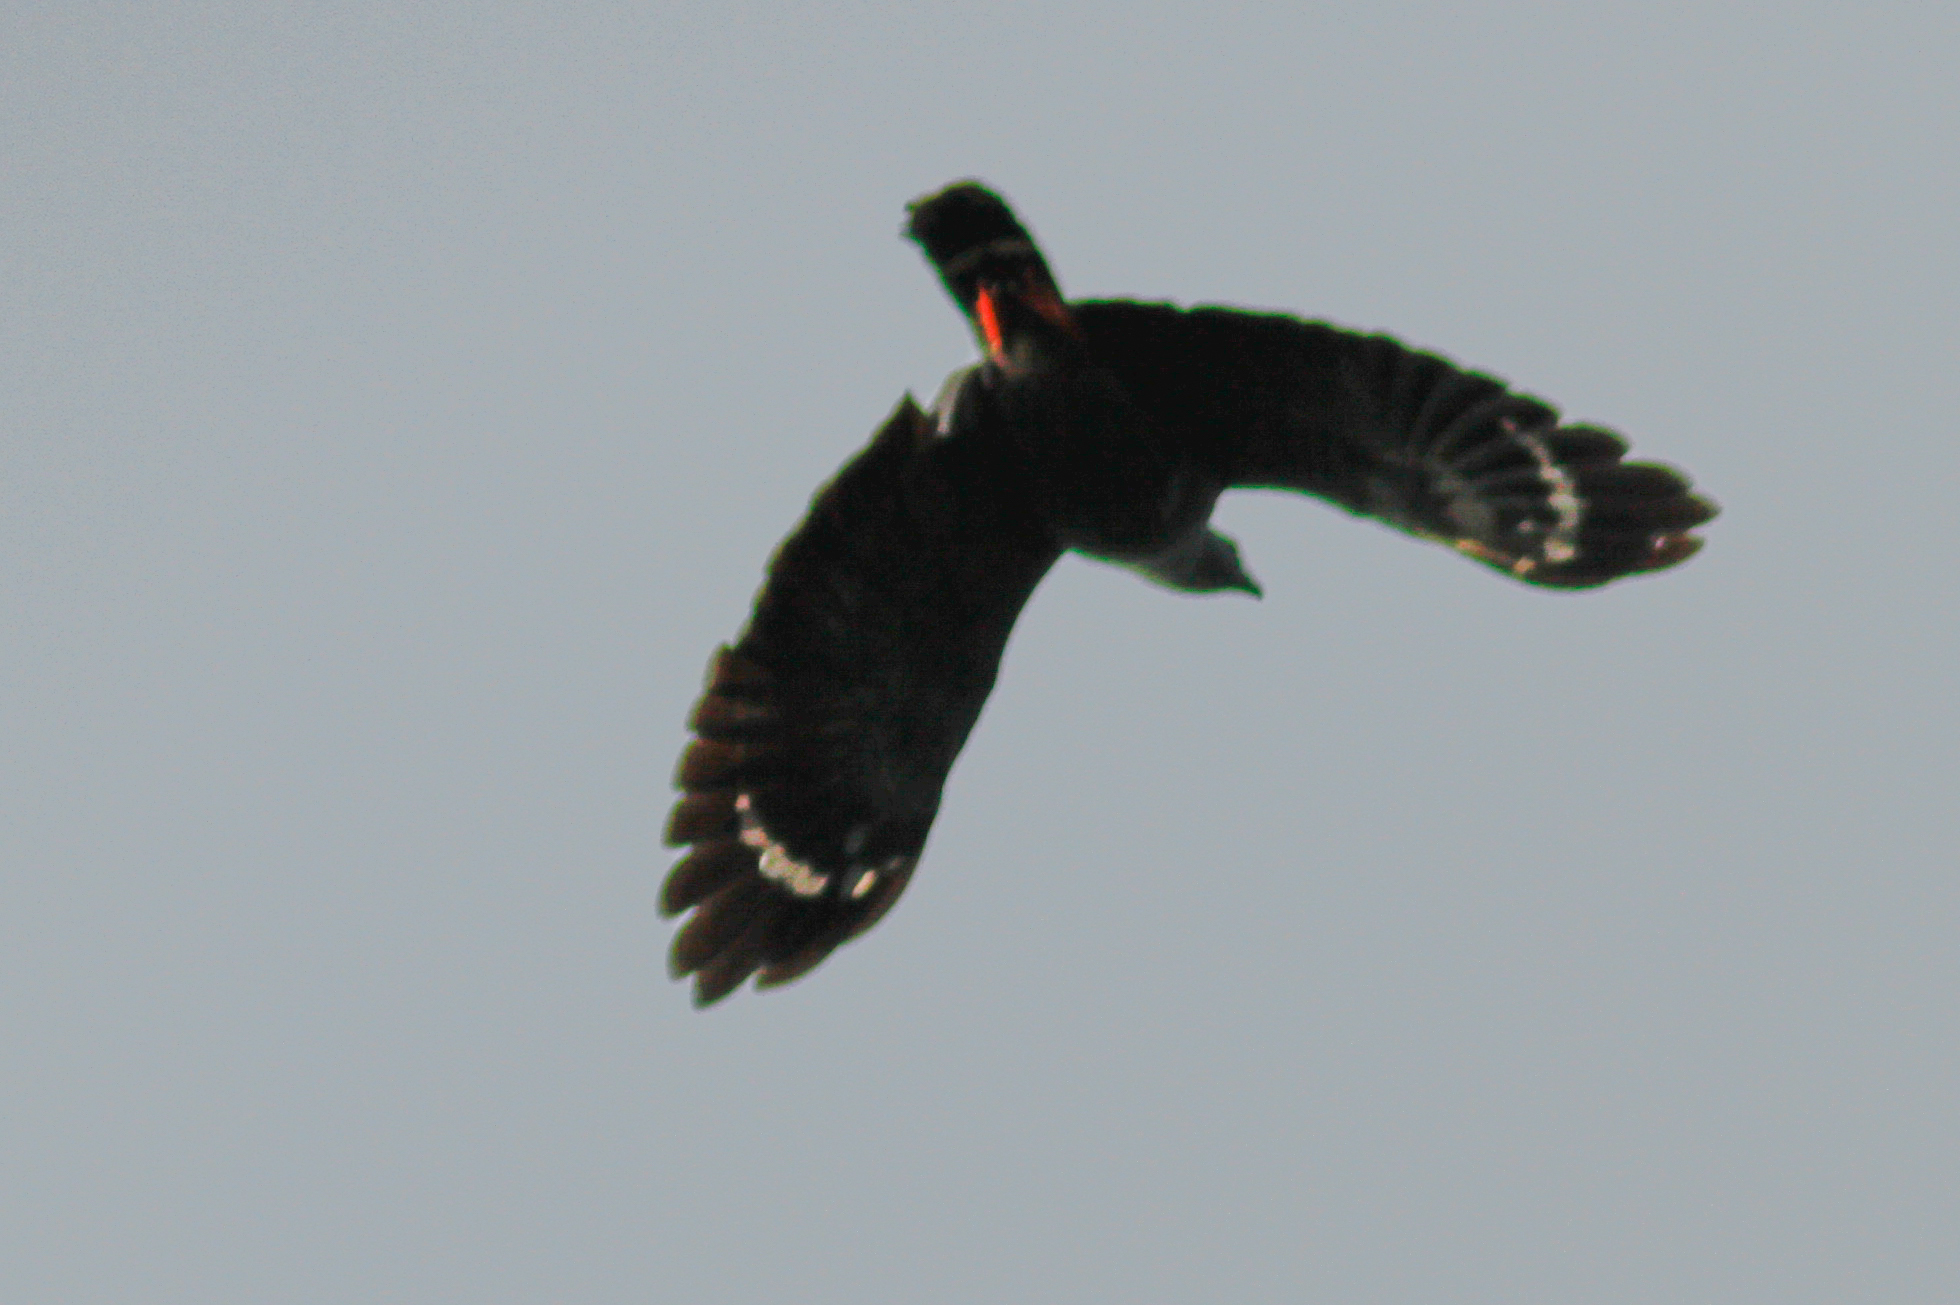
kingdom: Animalia
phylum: Chordata
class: Aves
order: Accipitriformes
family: Accipitridae
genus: Geranospiza
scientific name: Geranospiza caerulescens
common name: Crane hawk
